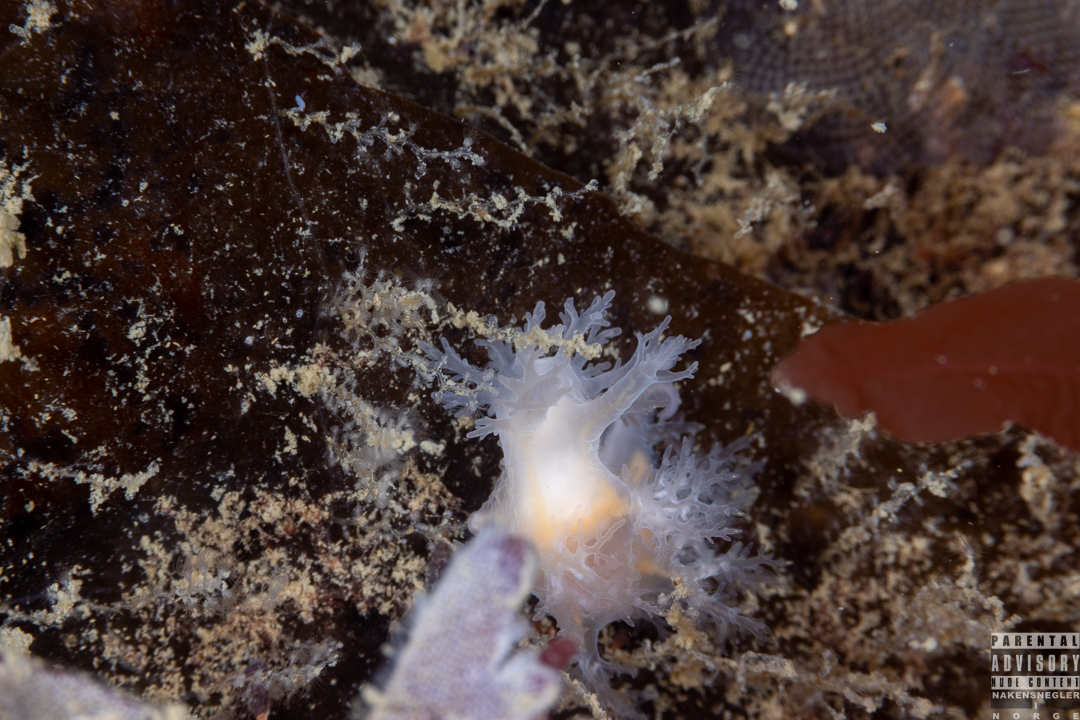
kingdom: Animalia
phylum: Mollusca
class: Gastropoda
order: Nudibranchia
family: Dendronotidae
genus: Dendronotus
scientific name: Dendronotus frondosus
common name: Bushy-backed nudibranch
